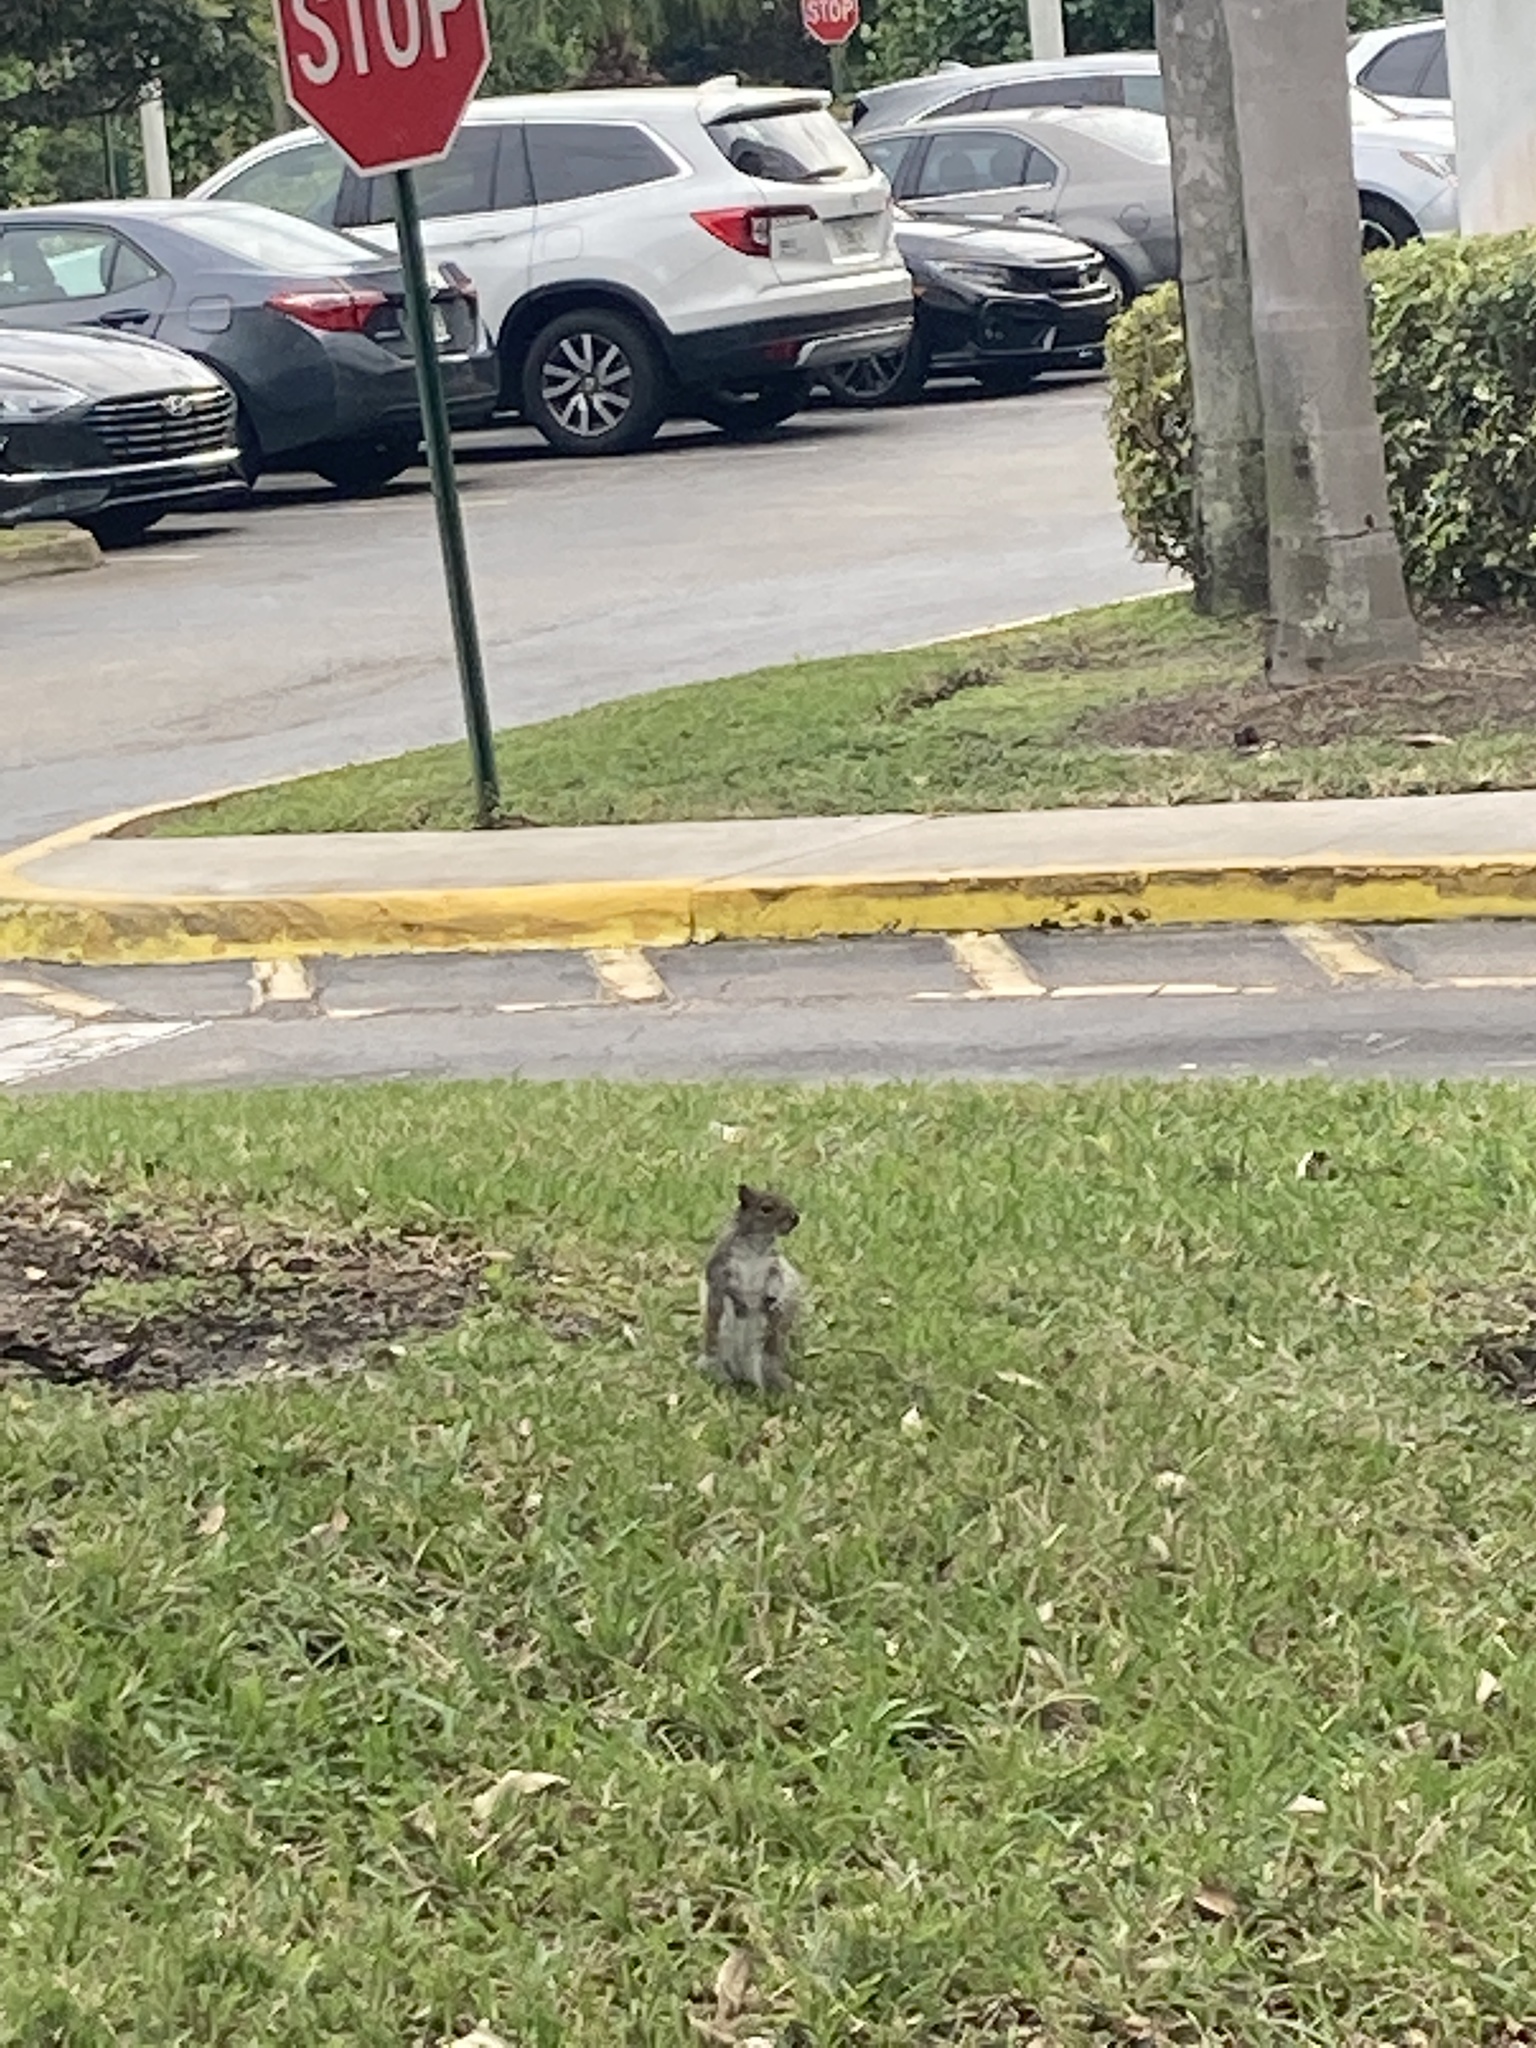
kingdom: Animalia
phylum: Chordata
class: Mammalia
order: Rodentia
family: Sciuridae
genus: Sciurus
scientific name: Sciurus carolinensis
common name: Eastern gray squirrel
